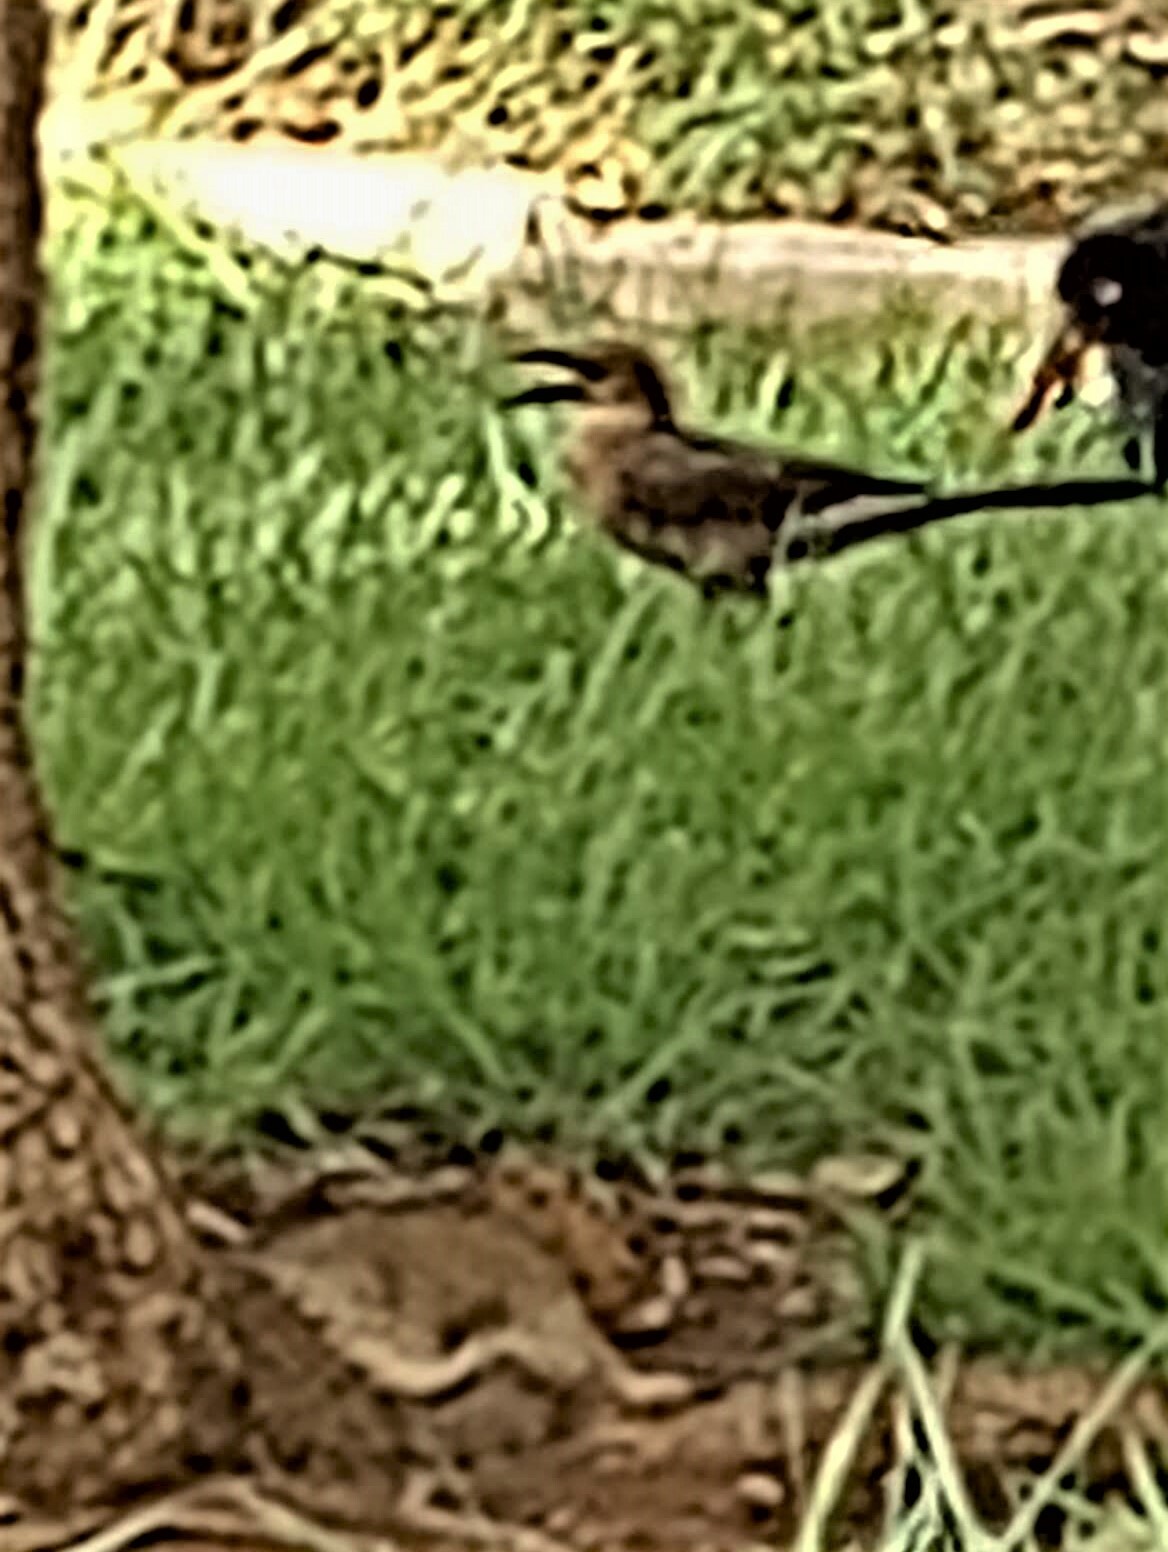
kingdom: Animalia
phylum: Chordata
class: Aves
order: Passeriformes
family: Icteridae
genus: Quiscalus
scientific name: Quiscalus mexicanus
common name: Great-tailed grackle
